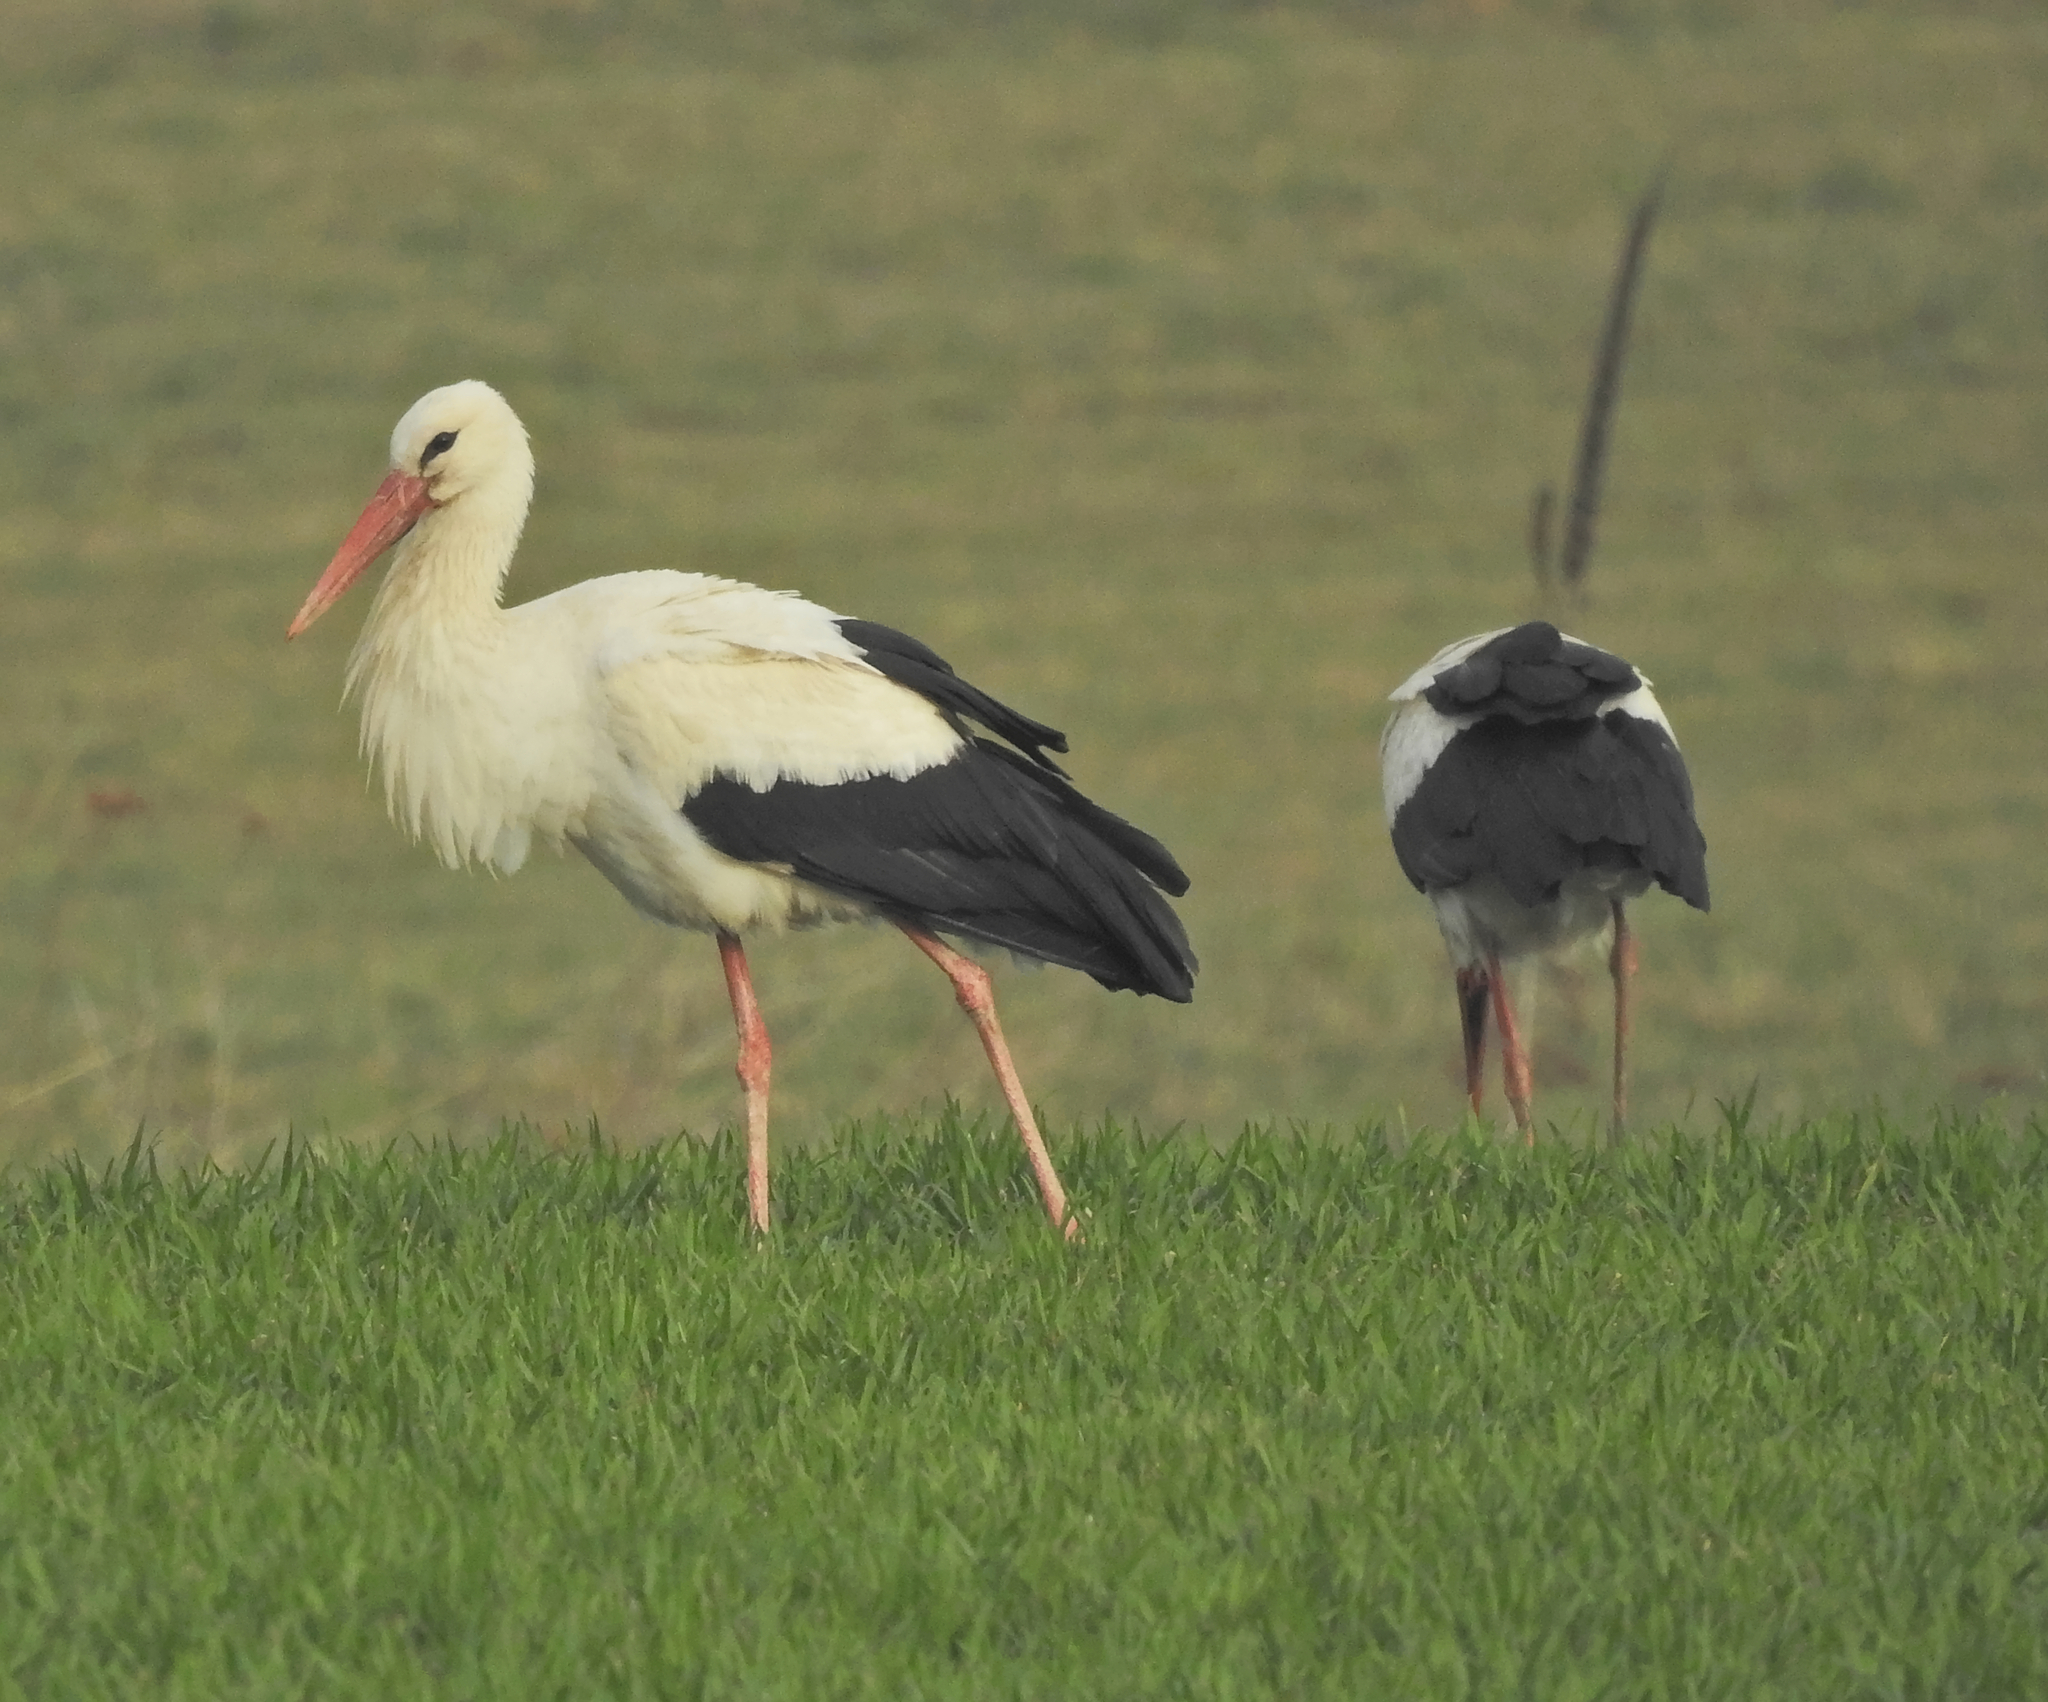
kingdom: Animalia
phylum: Chordata
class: Aves
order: Ciconiiformes
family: Ciconiidae
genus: Ciconia
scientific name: Ciconia ciconia
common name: White stork
